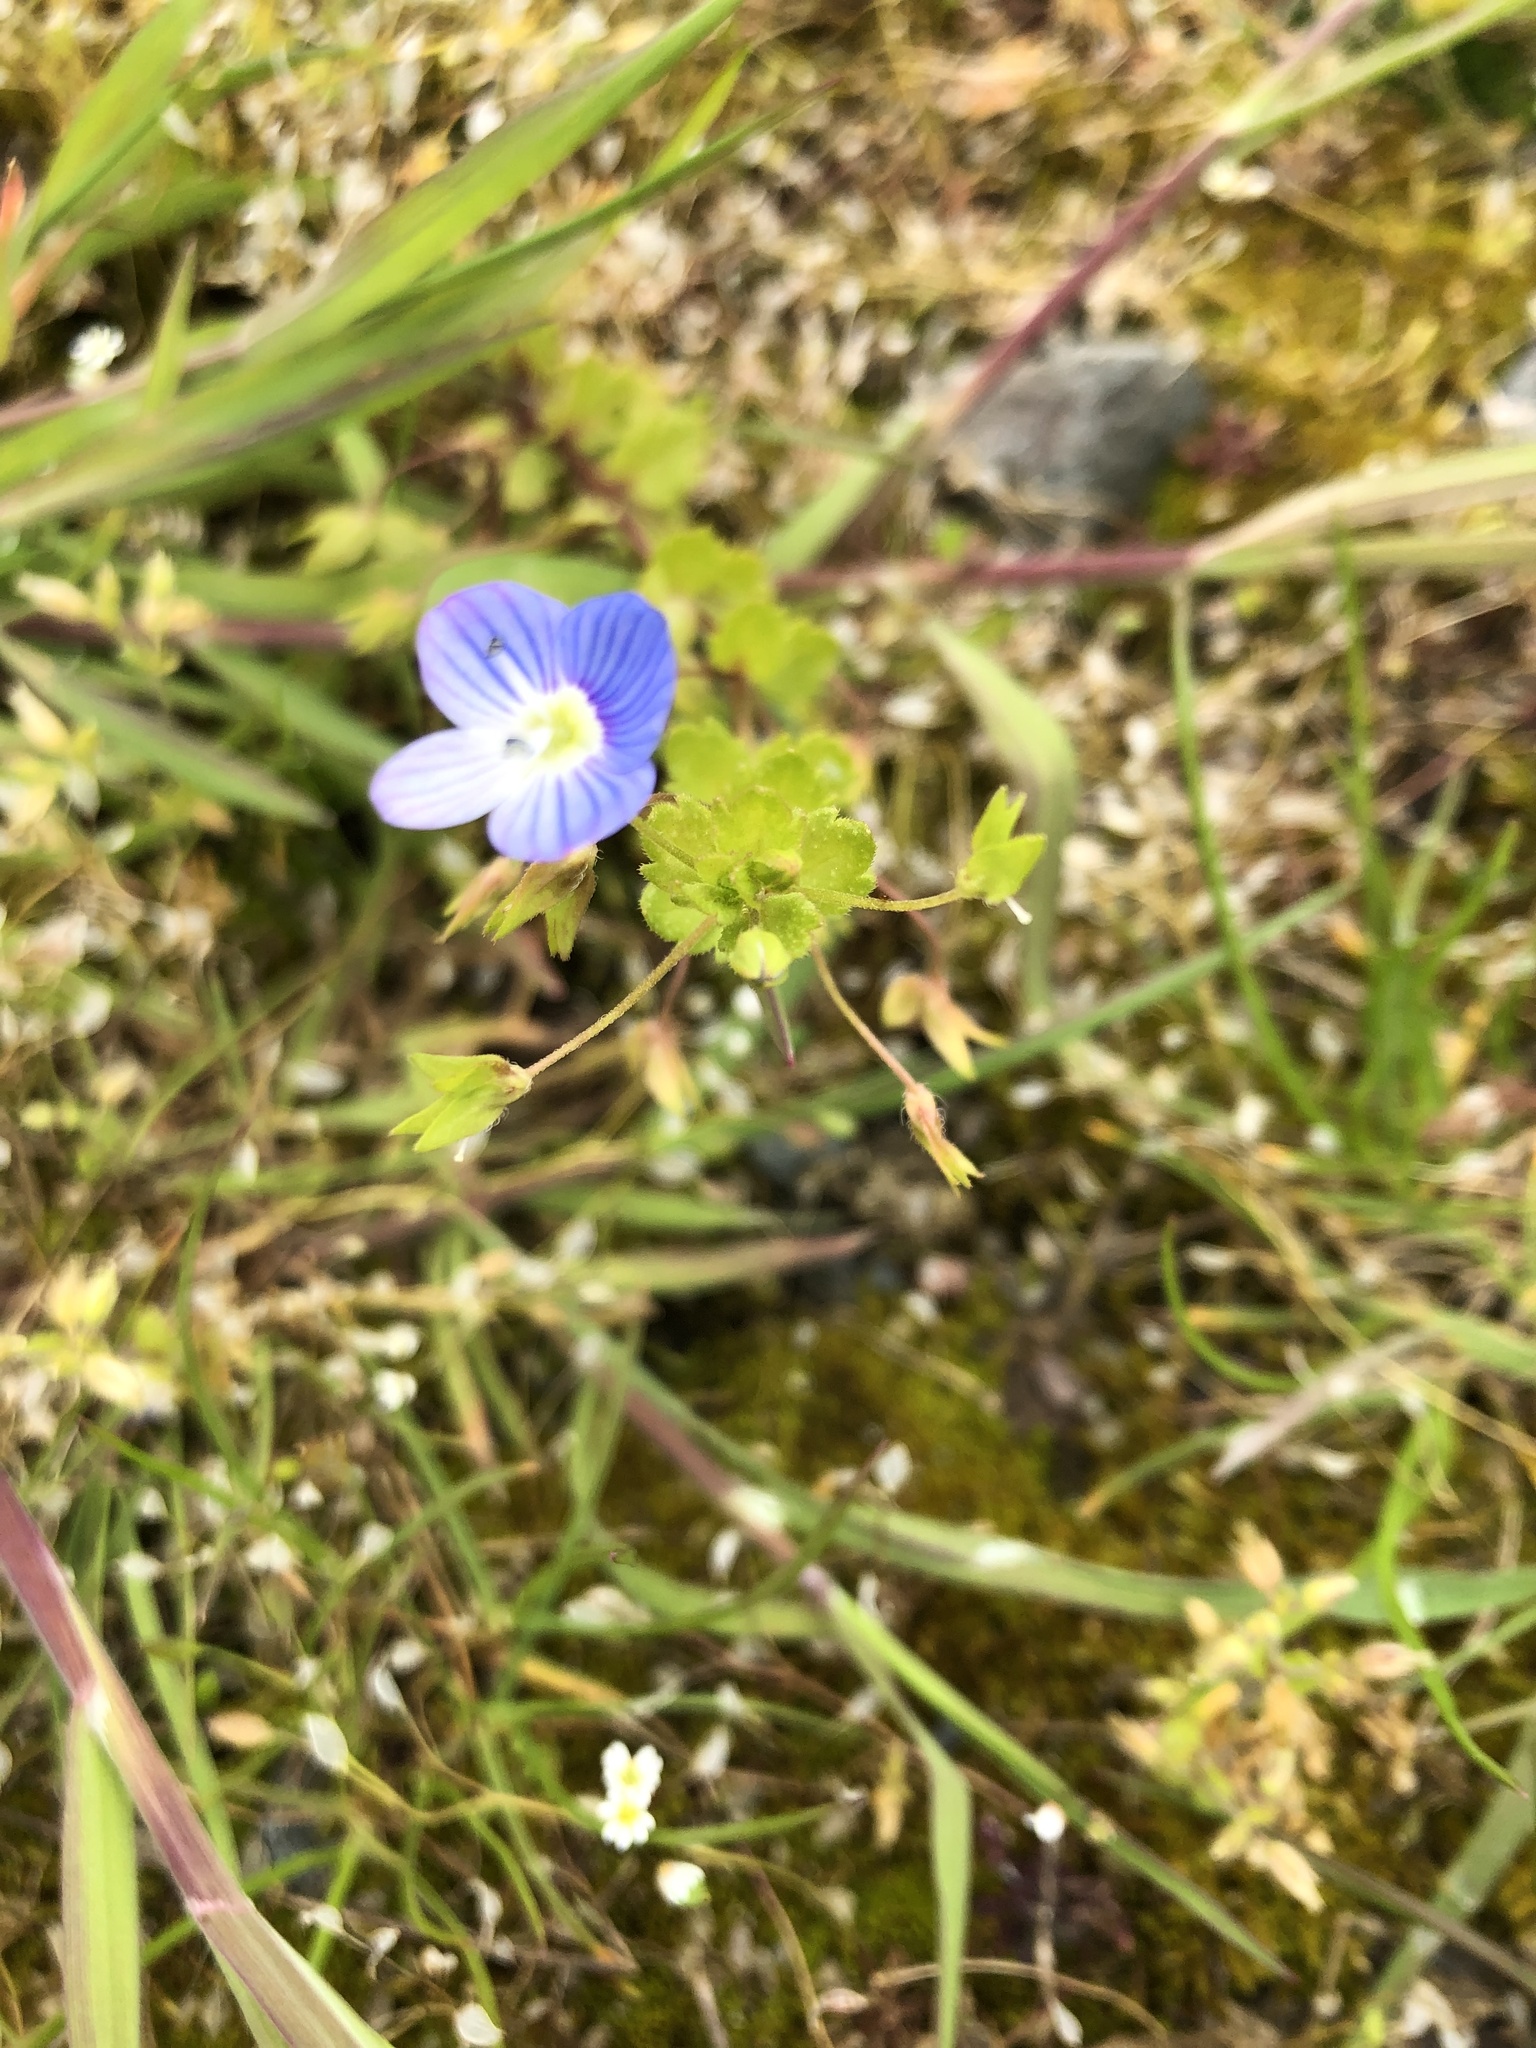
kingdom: Plantae
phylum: Tracheophyta
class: Magnoliopsida
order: Lamiales
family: Plantaginaceae
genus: Veronica
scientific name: Veronica persica
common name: Common field-speedwell
